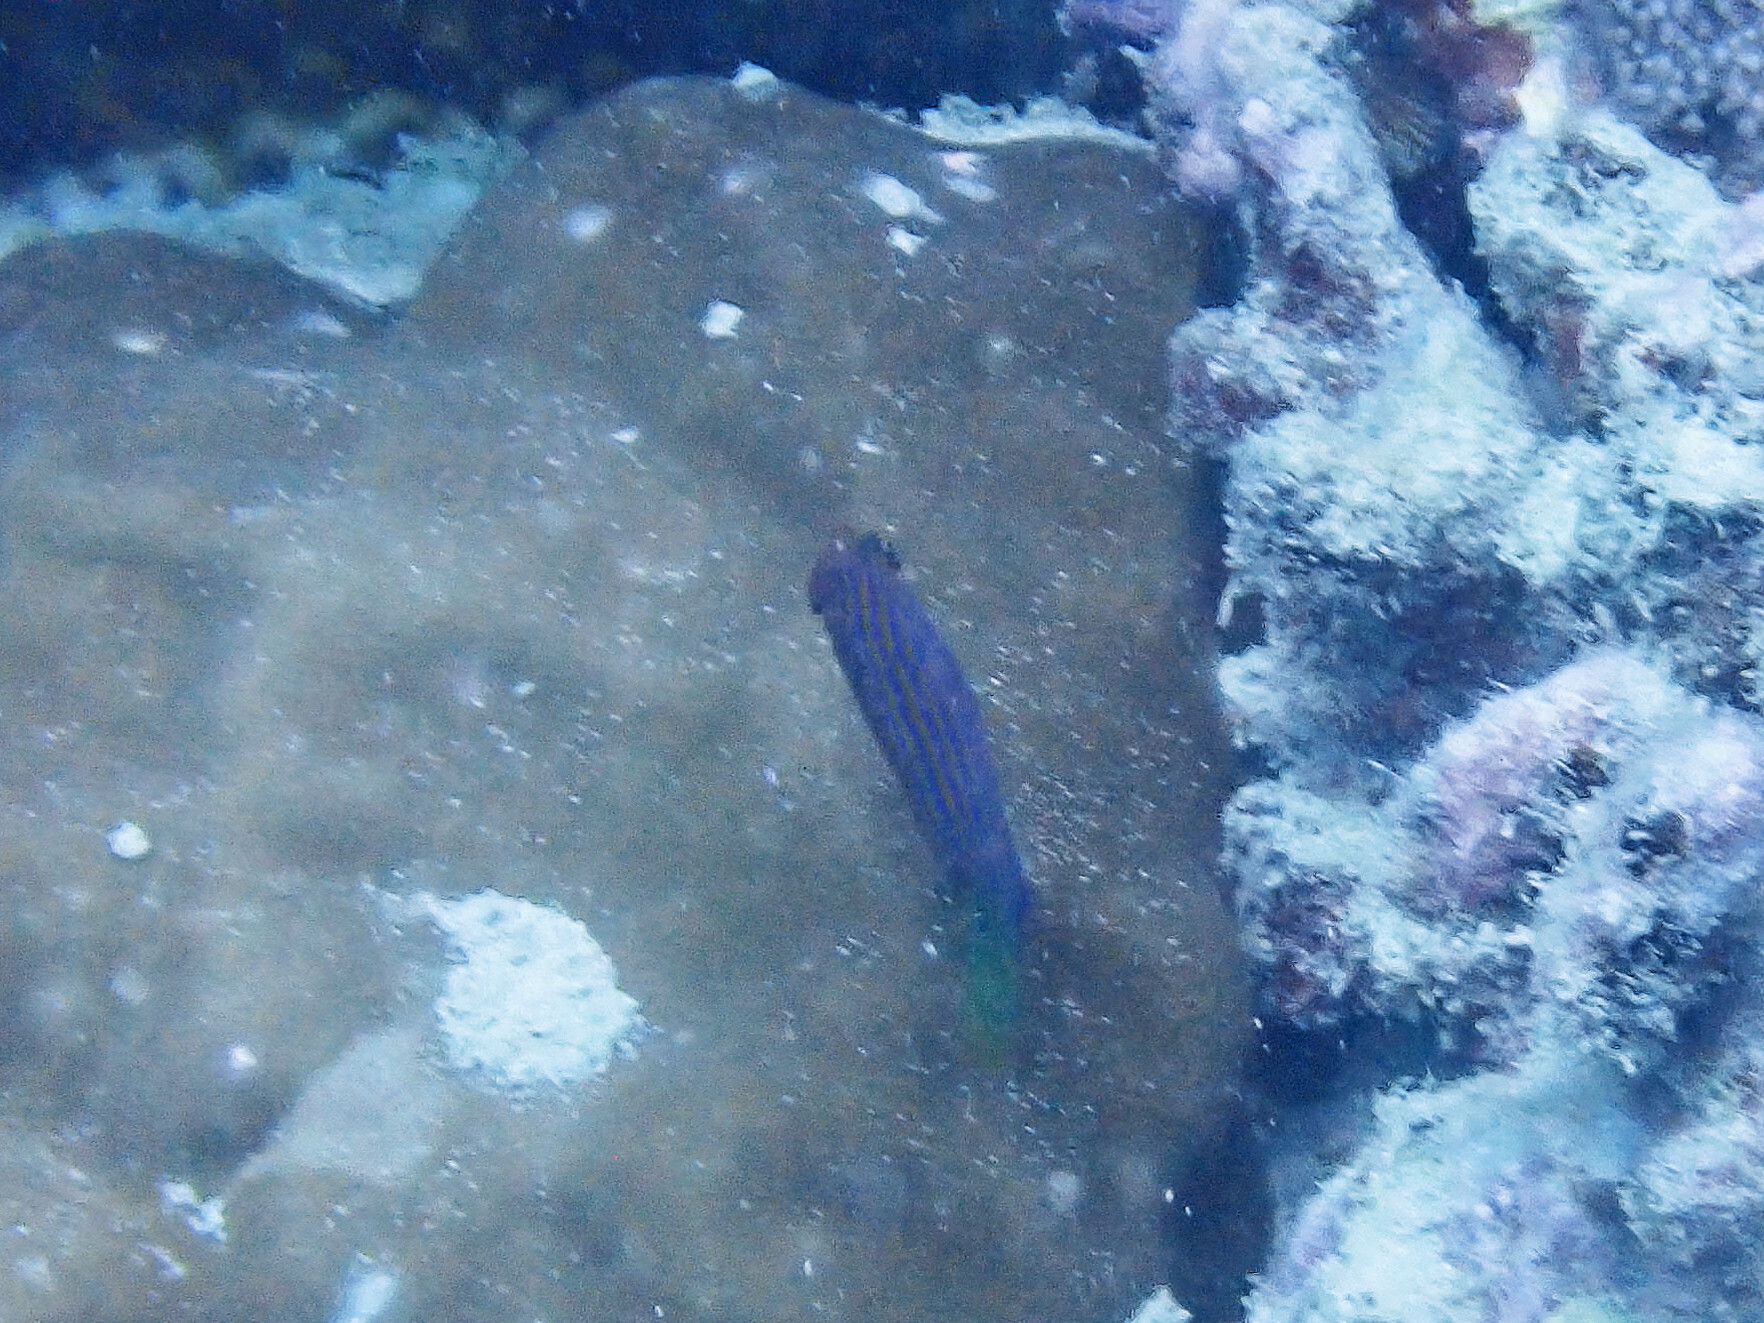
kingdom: Animalia
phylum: Chordata
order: Perciformes
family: Labridae
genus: Pseudocheilinus
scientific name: Pseudocheilinus hexataenia
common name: Sixline wrasse
